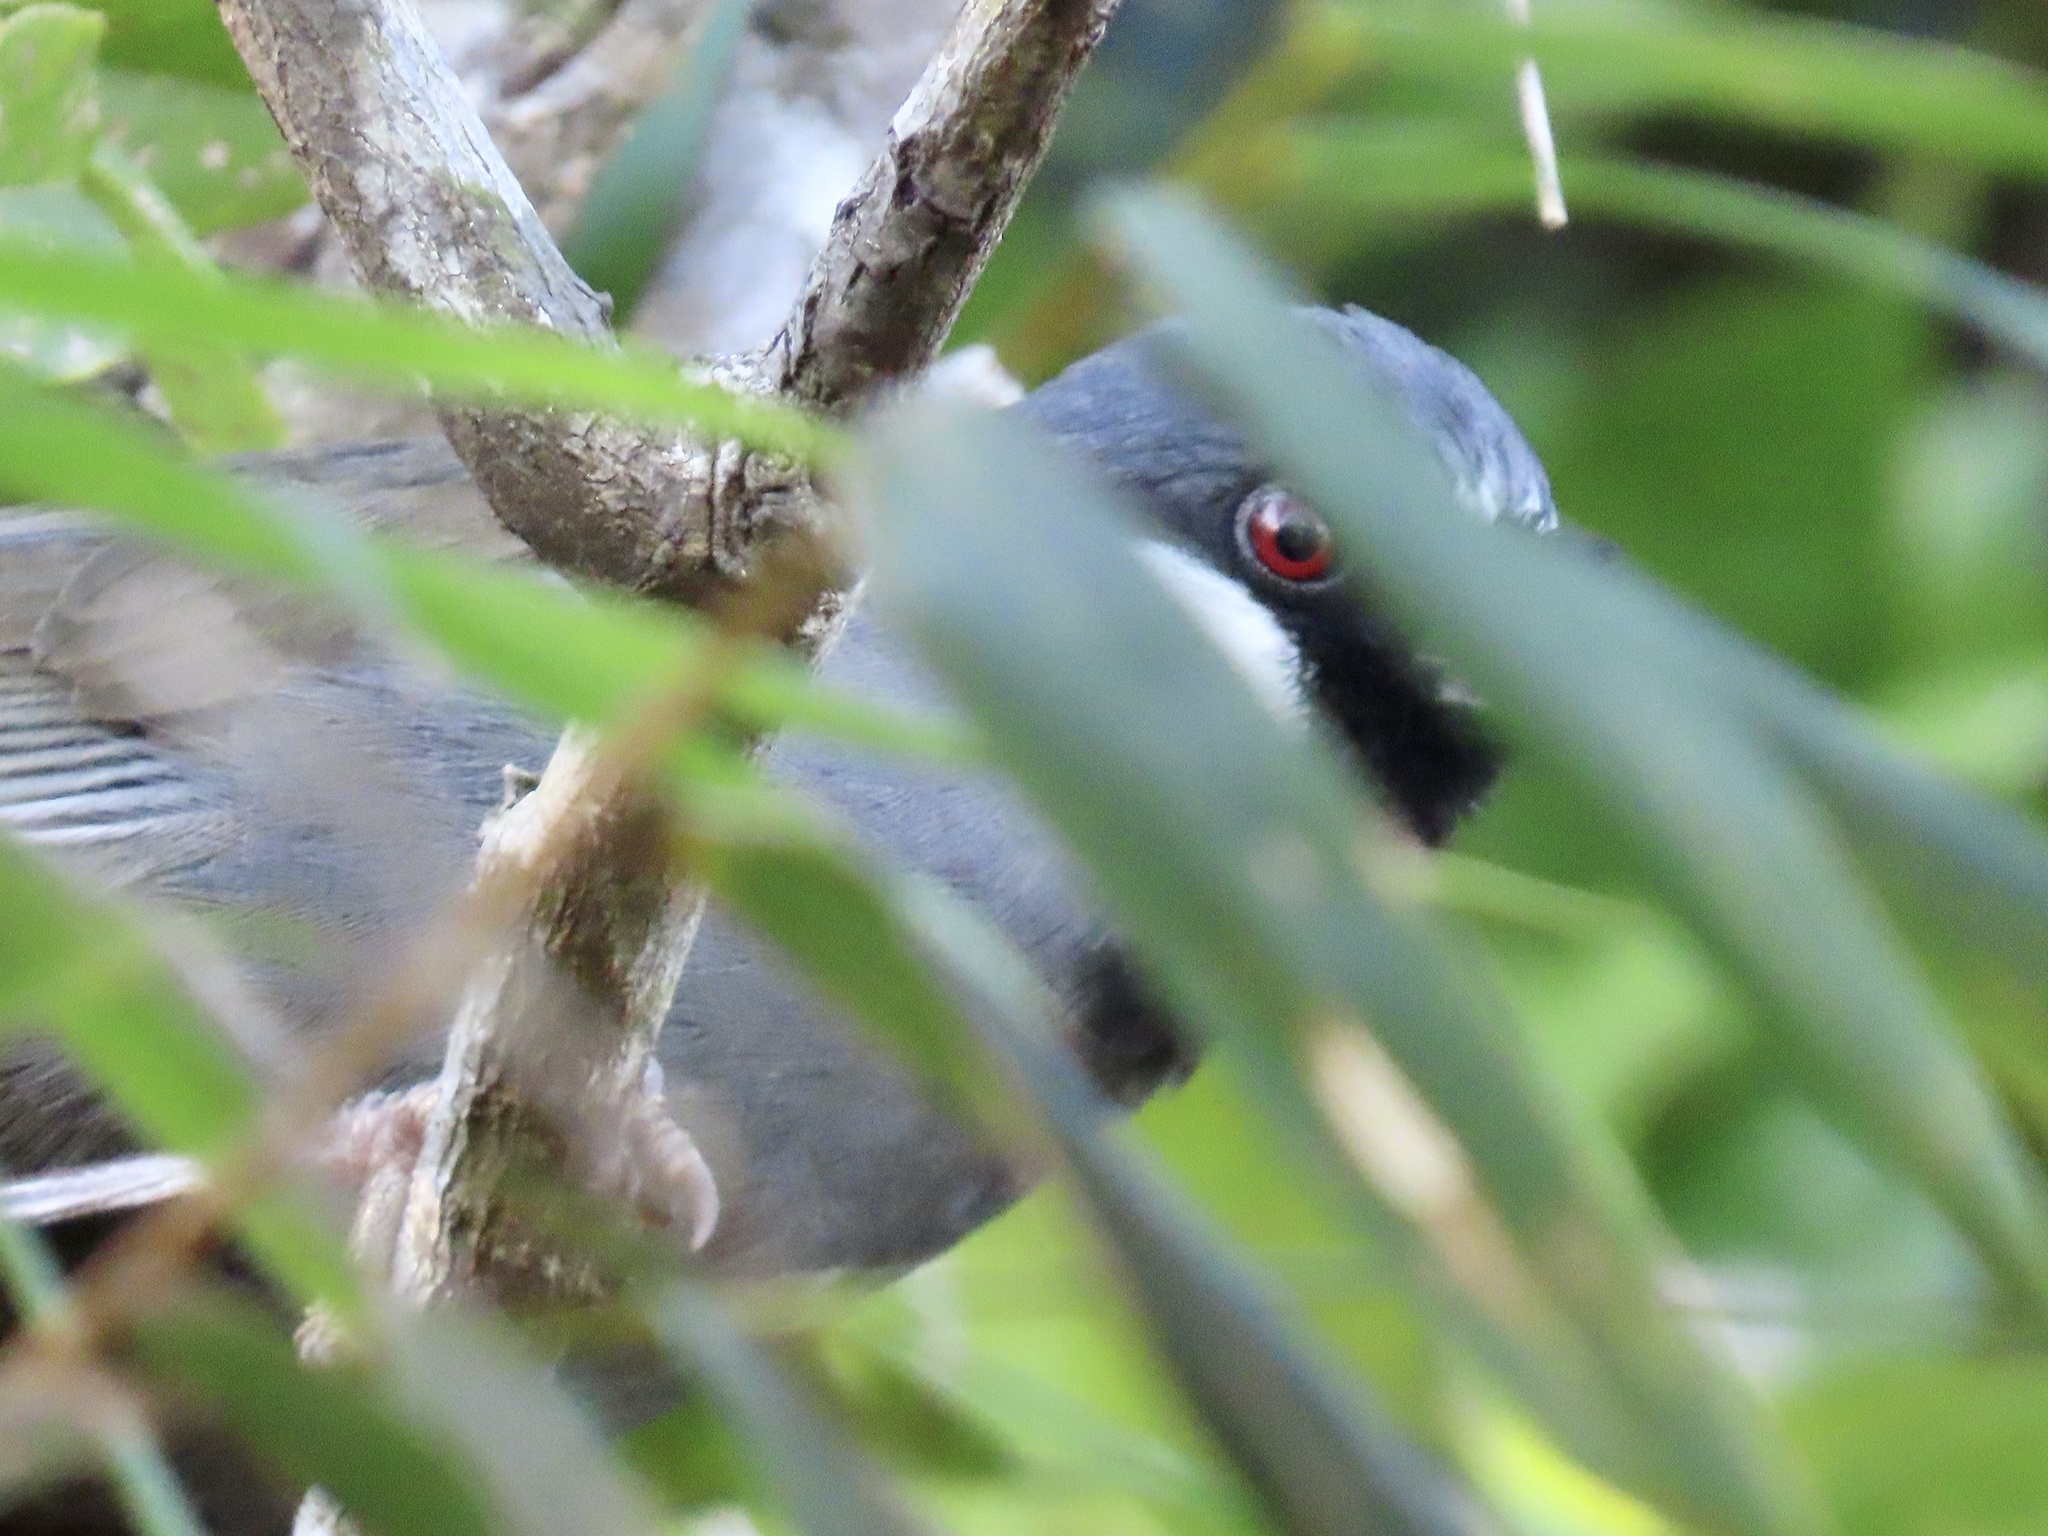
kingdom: Animalia
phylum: Chordata
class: Aves
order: Passeriformes
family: Leiothrichidae
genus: Garrulax
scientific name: Garrulax chinensis
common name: Black-throated laughingthrush
